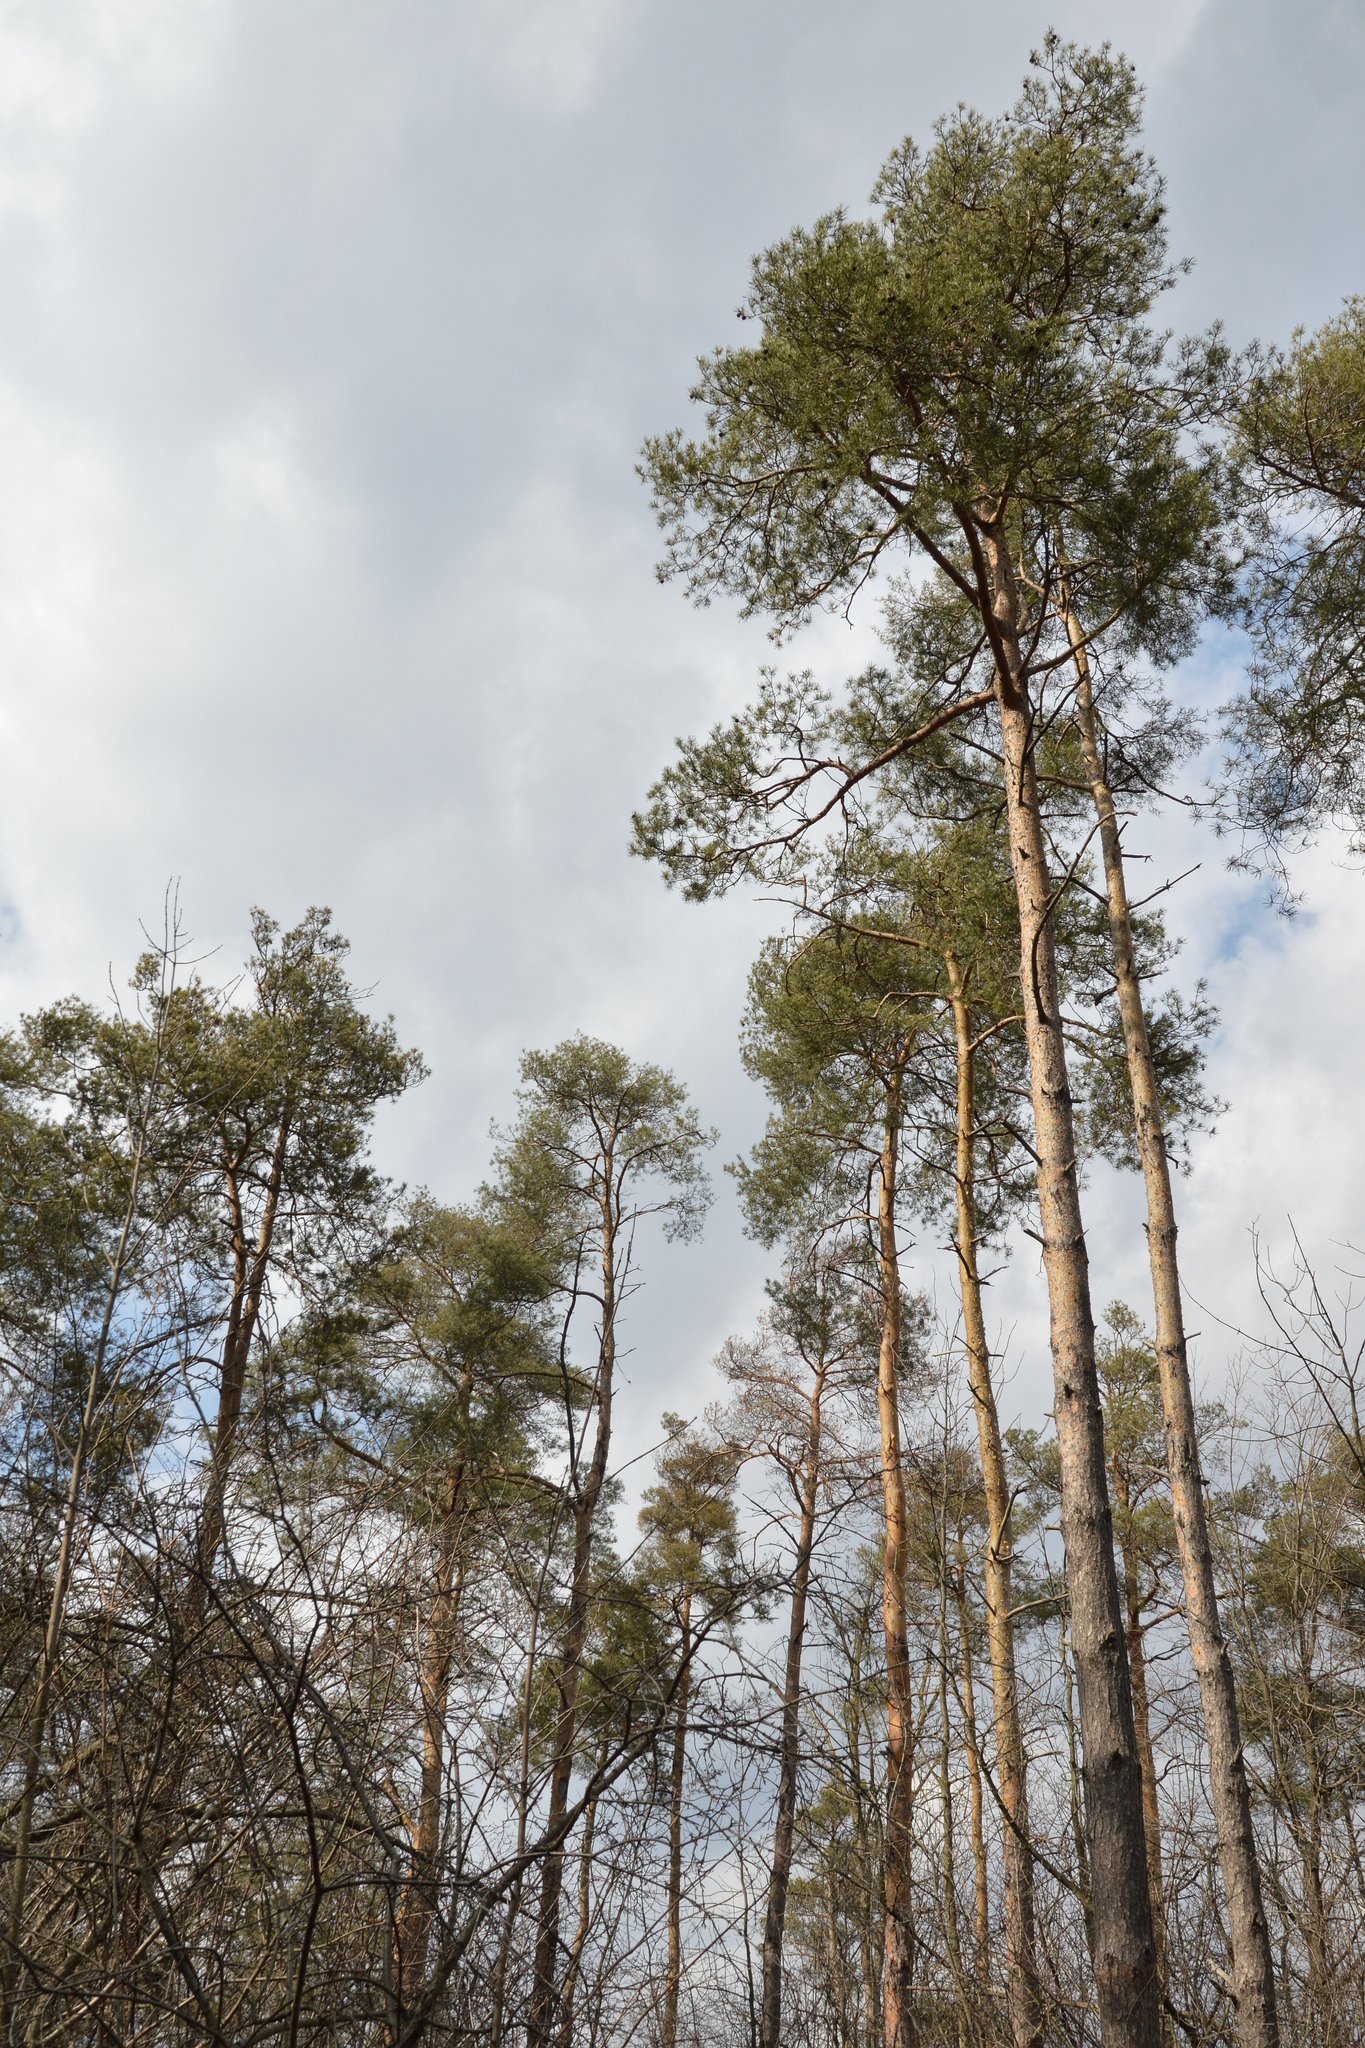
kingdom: Plantae
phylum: Tracheophyta
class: Pinopsida
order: Pinales
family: Pinaceae
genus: Pinus
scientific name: Pinus sylvestris
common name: Scots pine
